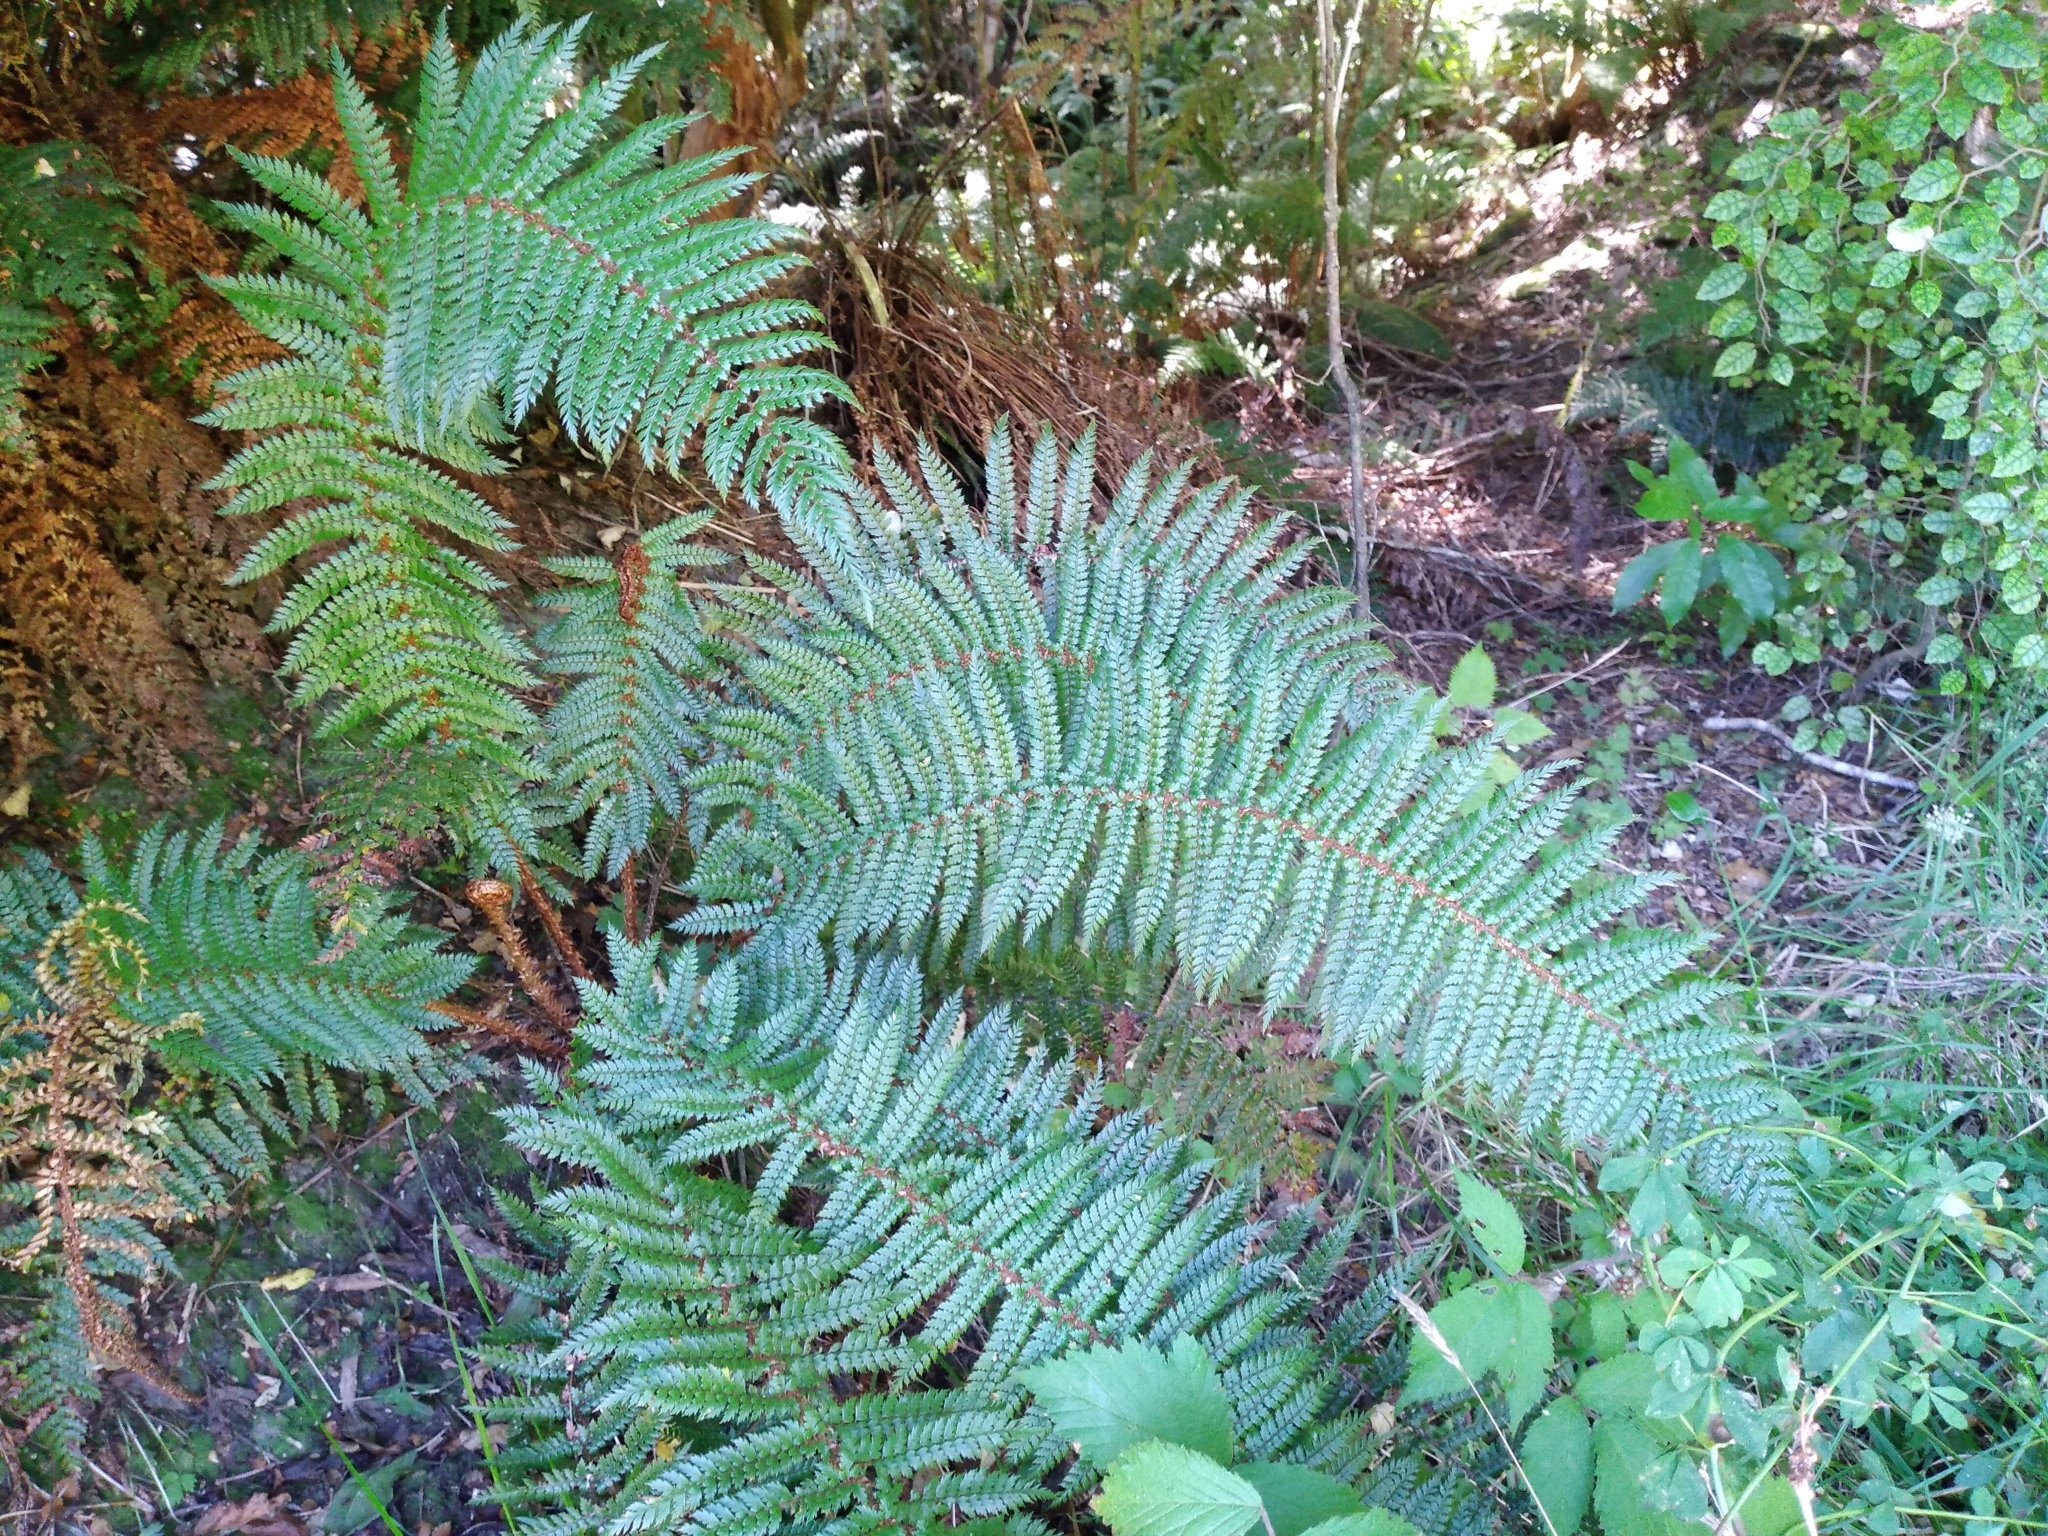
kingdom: Plantae
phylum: Tracheophyta
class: Polypodiopsida
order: Polypodiales
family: Dryopteridaceae
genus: Polystichum
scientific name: Polystichum vestitum
